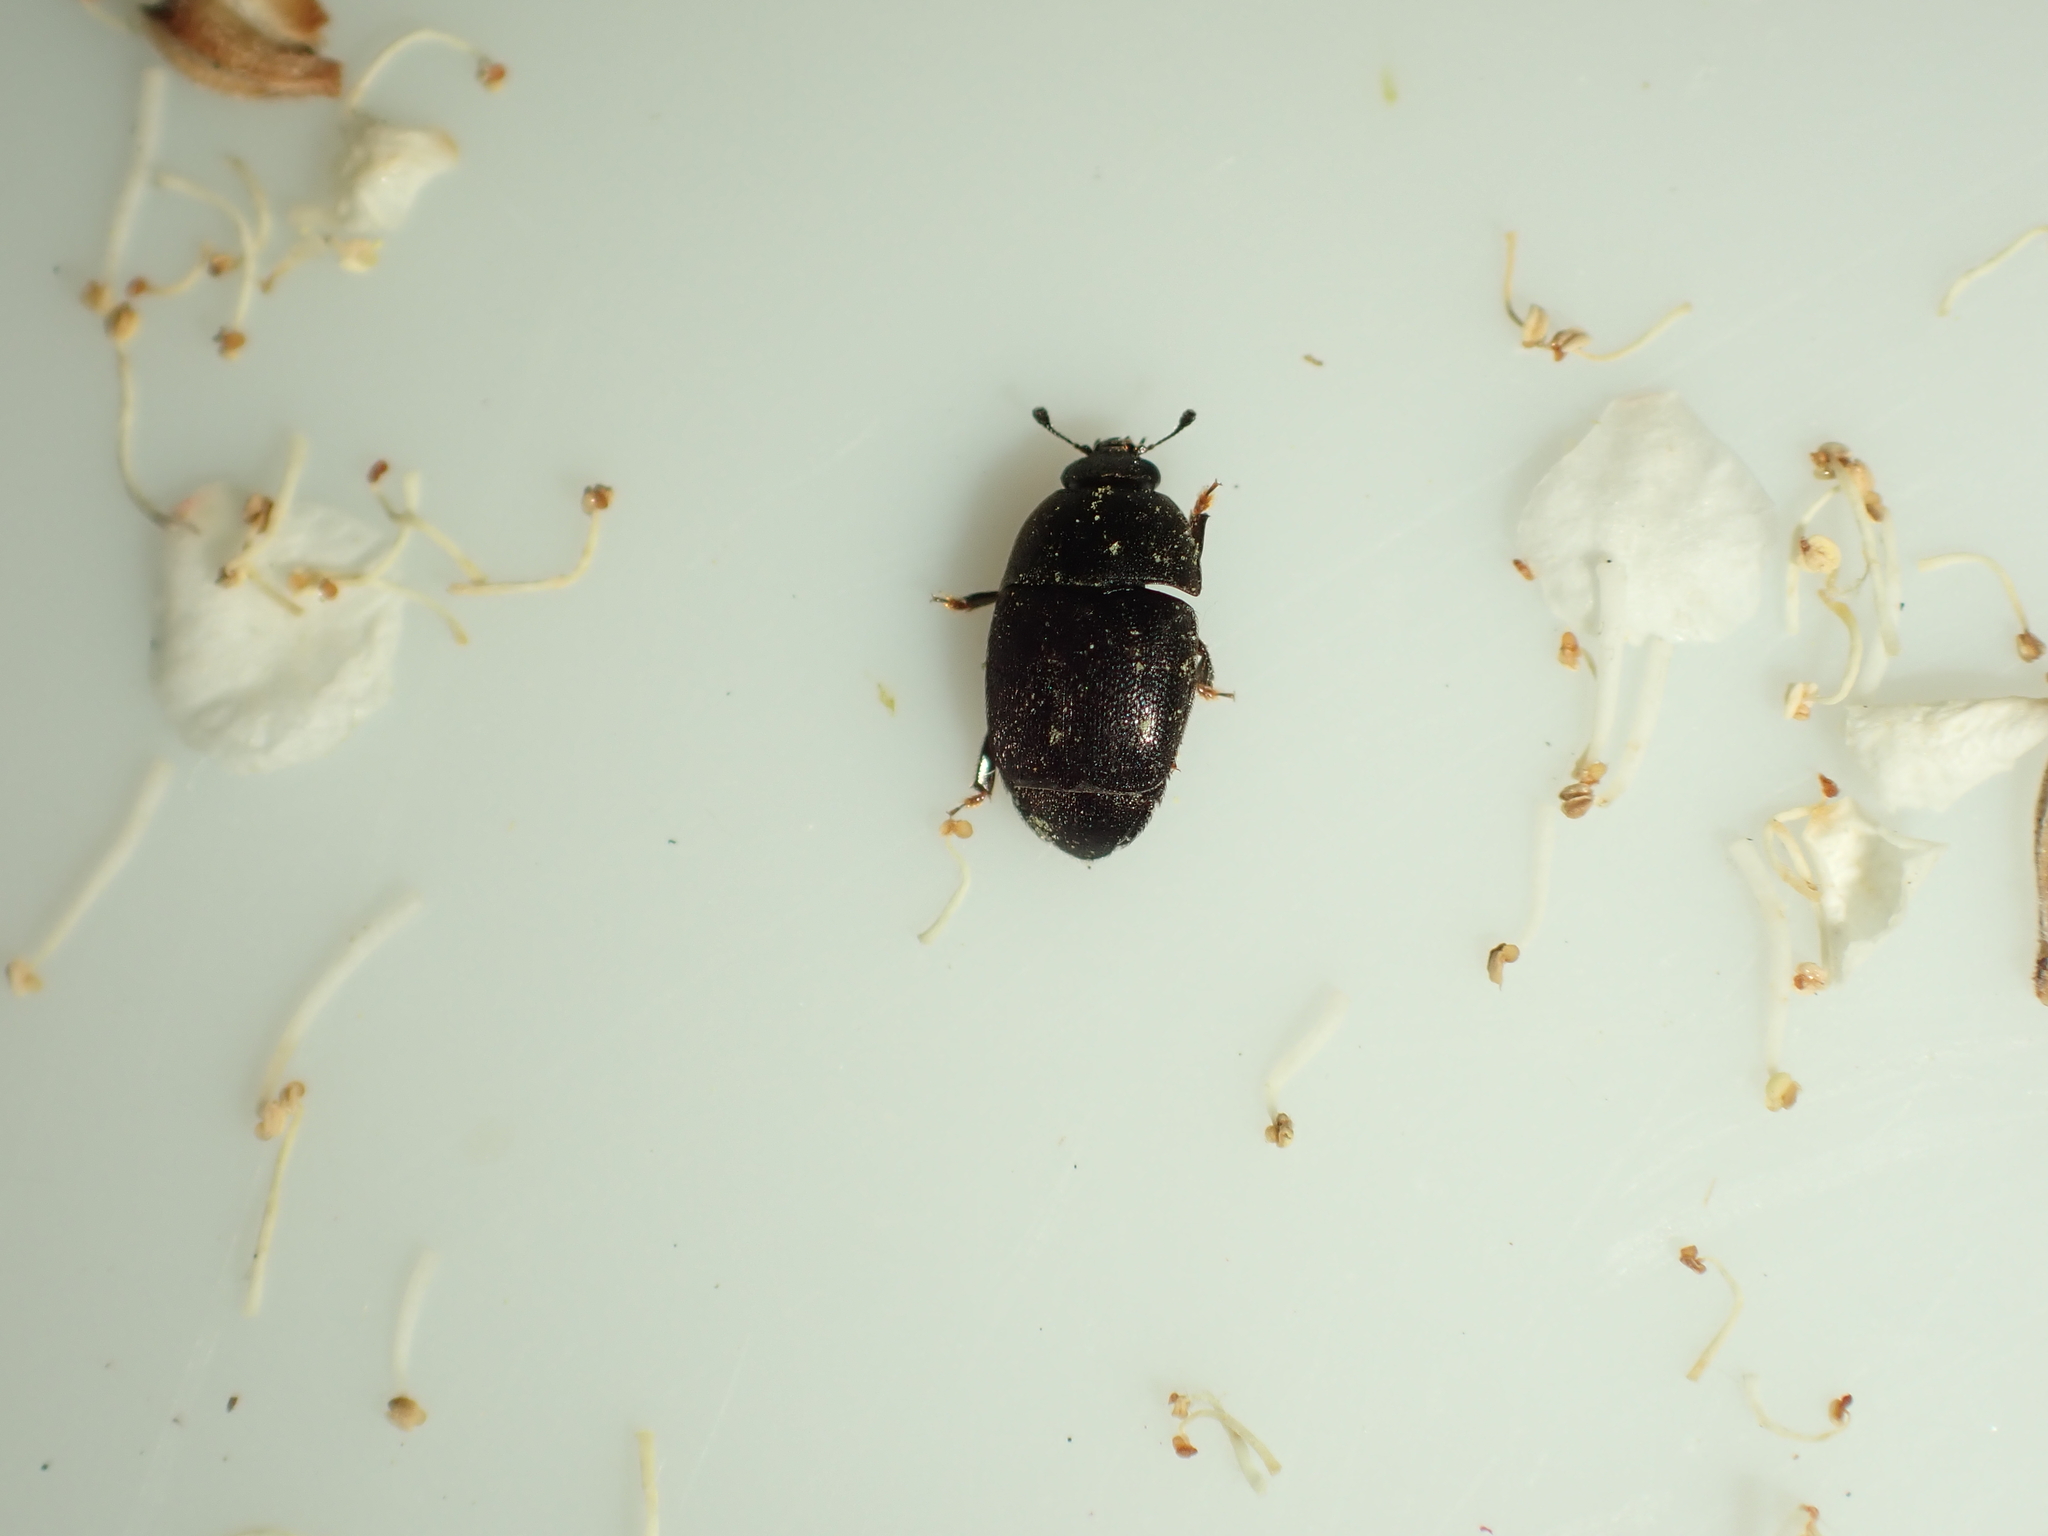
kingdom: Animalia
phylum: Arthropoda
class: Insecta
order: Coleoptera
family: Nitidulidae
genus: Aethina
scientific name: Aethina concolor
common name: Sap beetle
